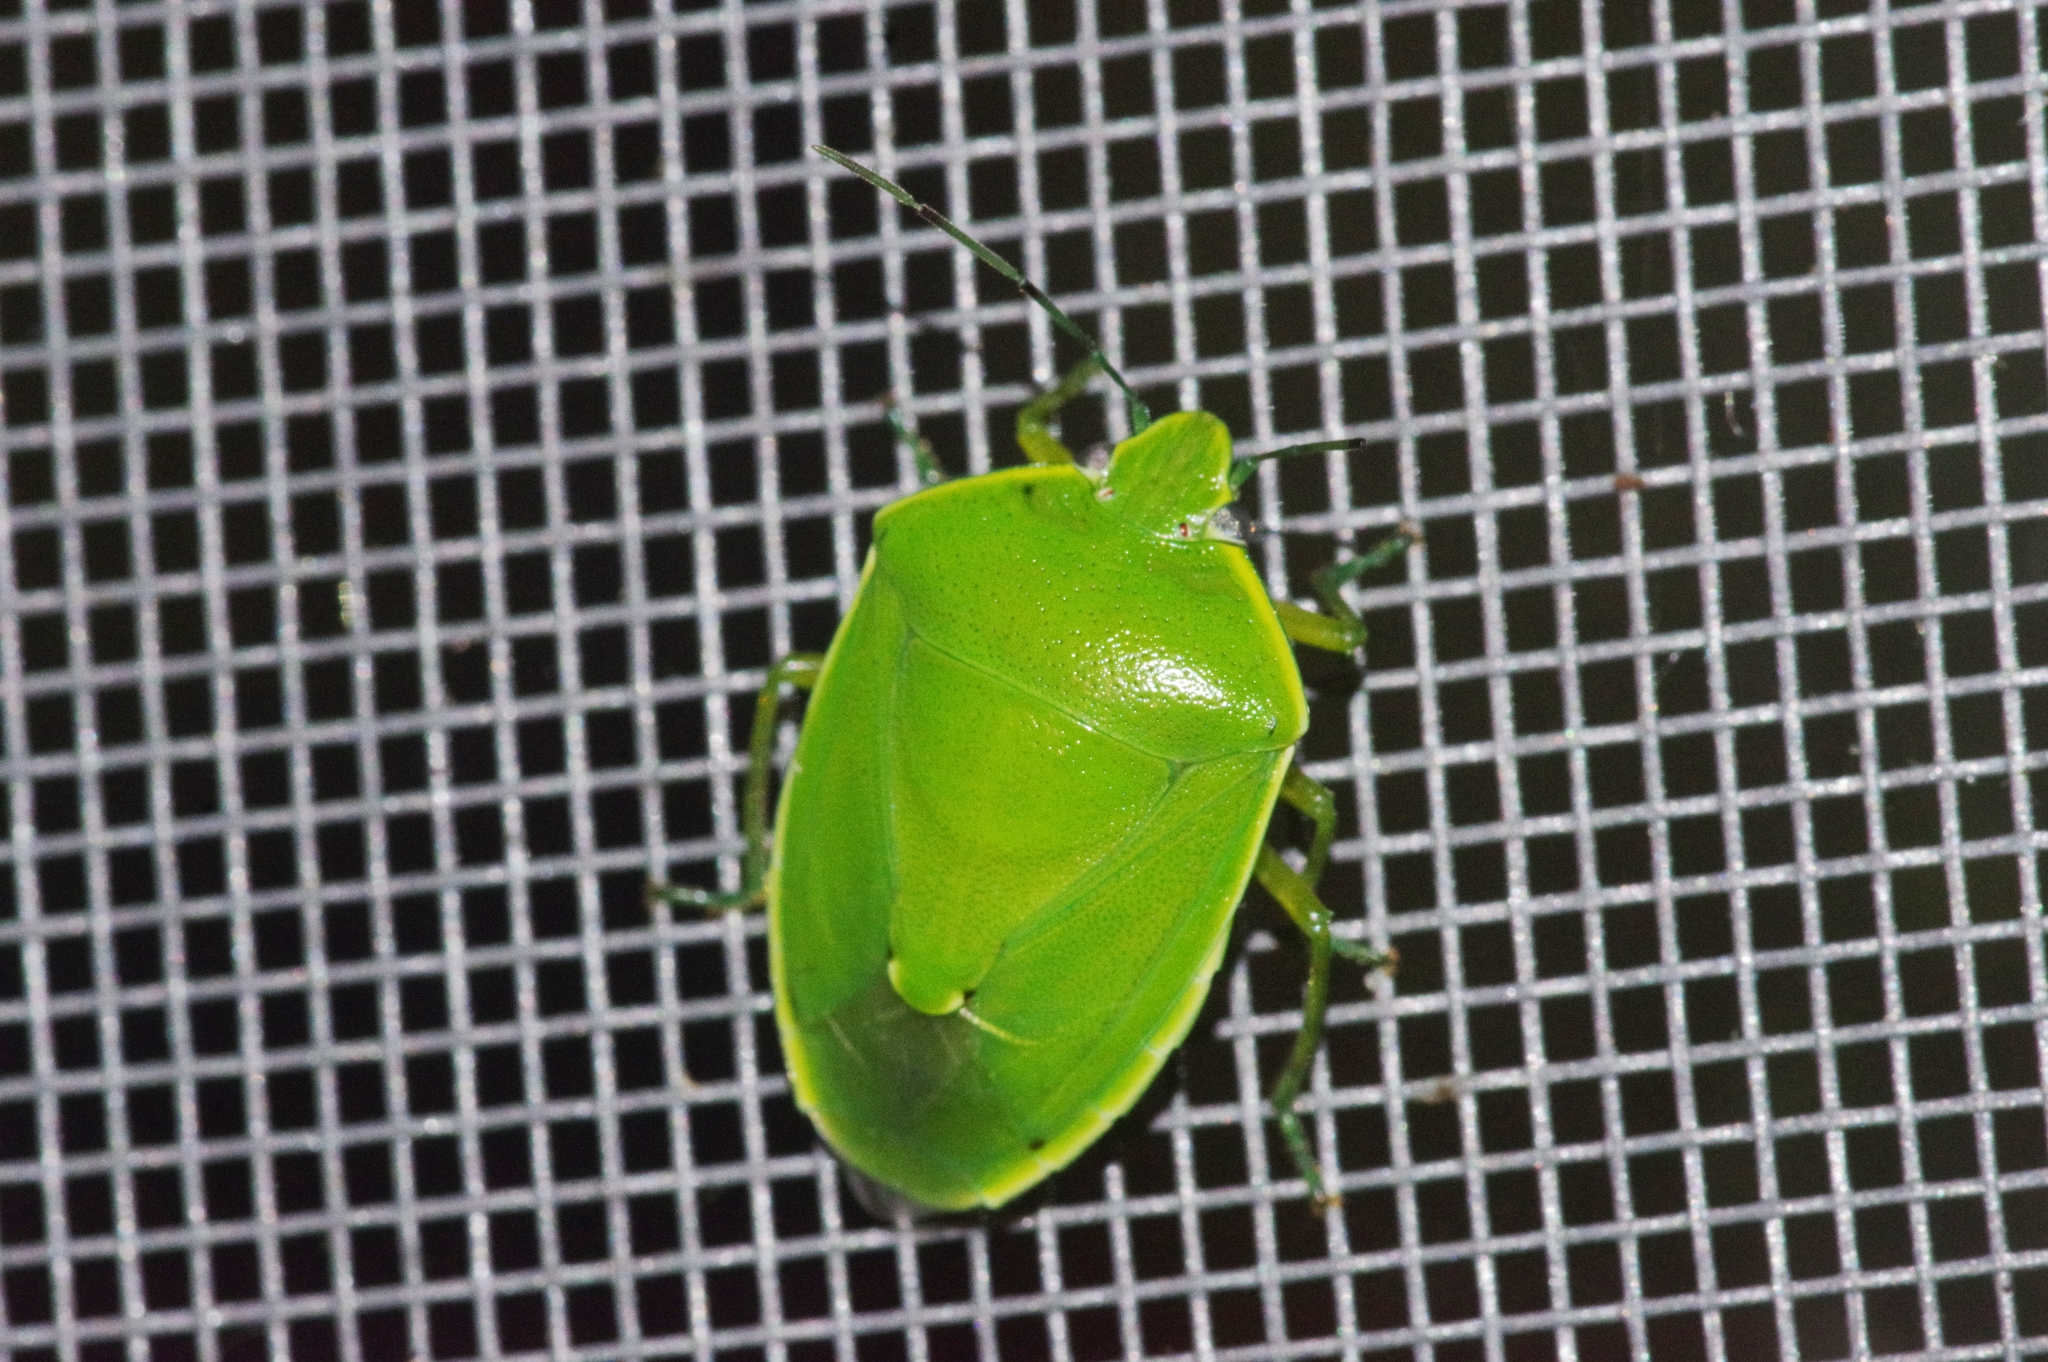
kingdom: Animalia
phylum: Arthropoda
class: Insecta
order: Hemiptera
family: Pentatomidae
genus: Glaucias
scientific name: Glaucias subpunctatus
